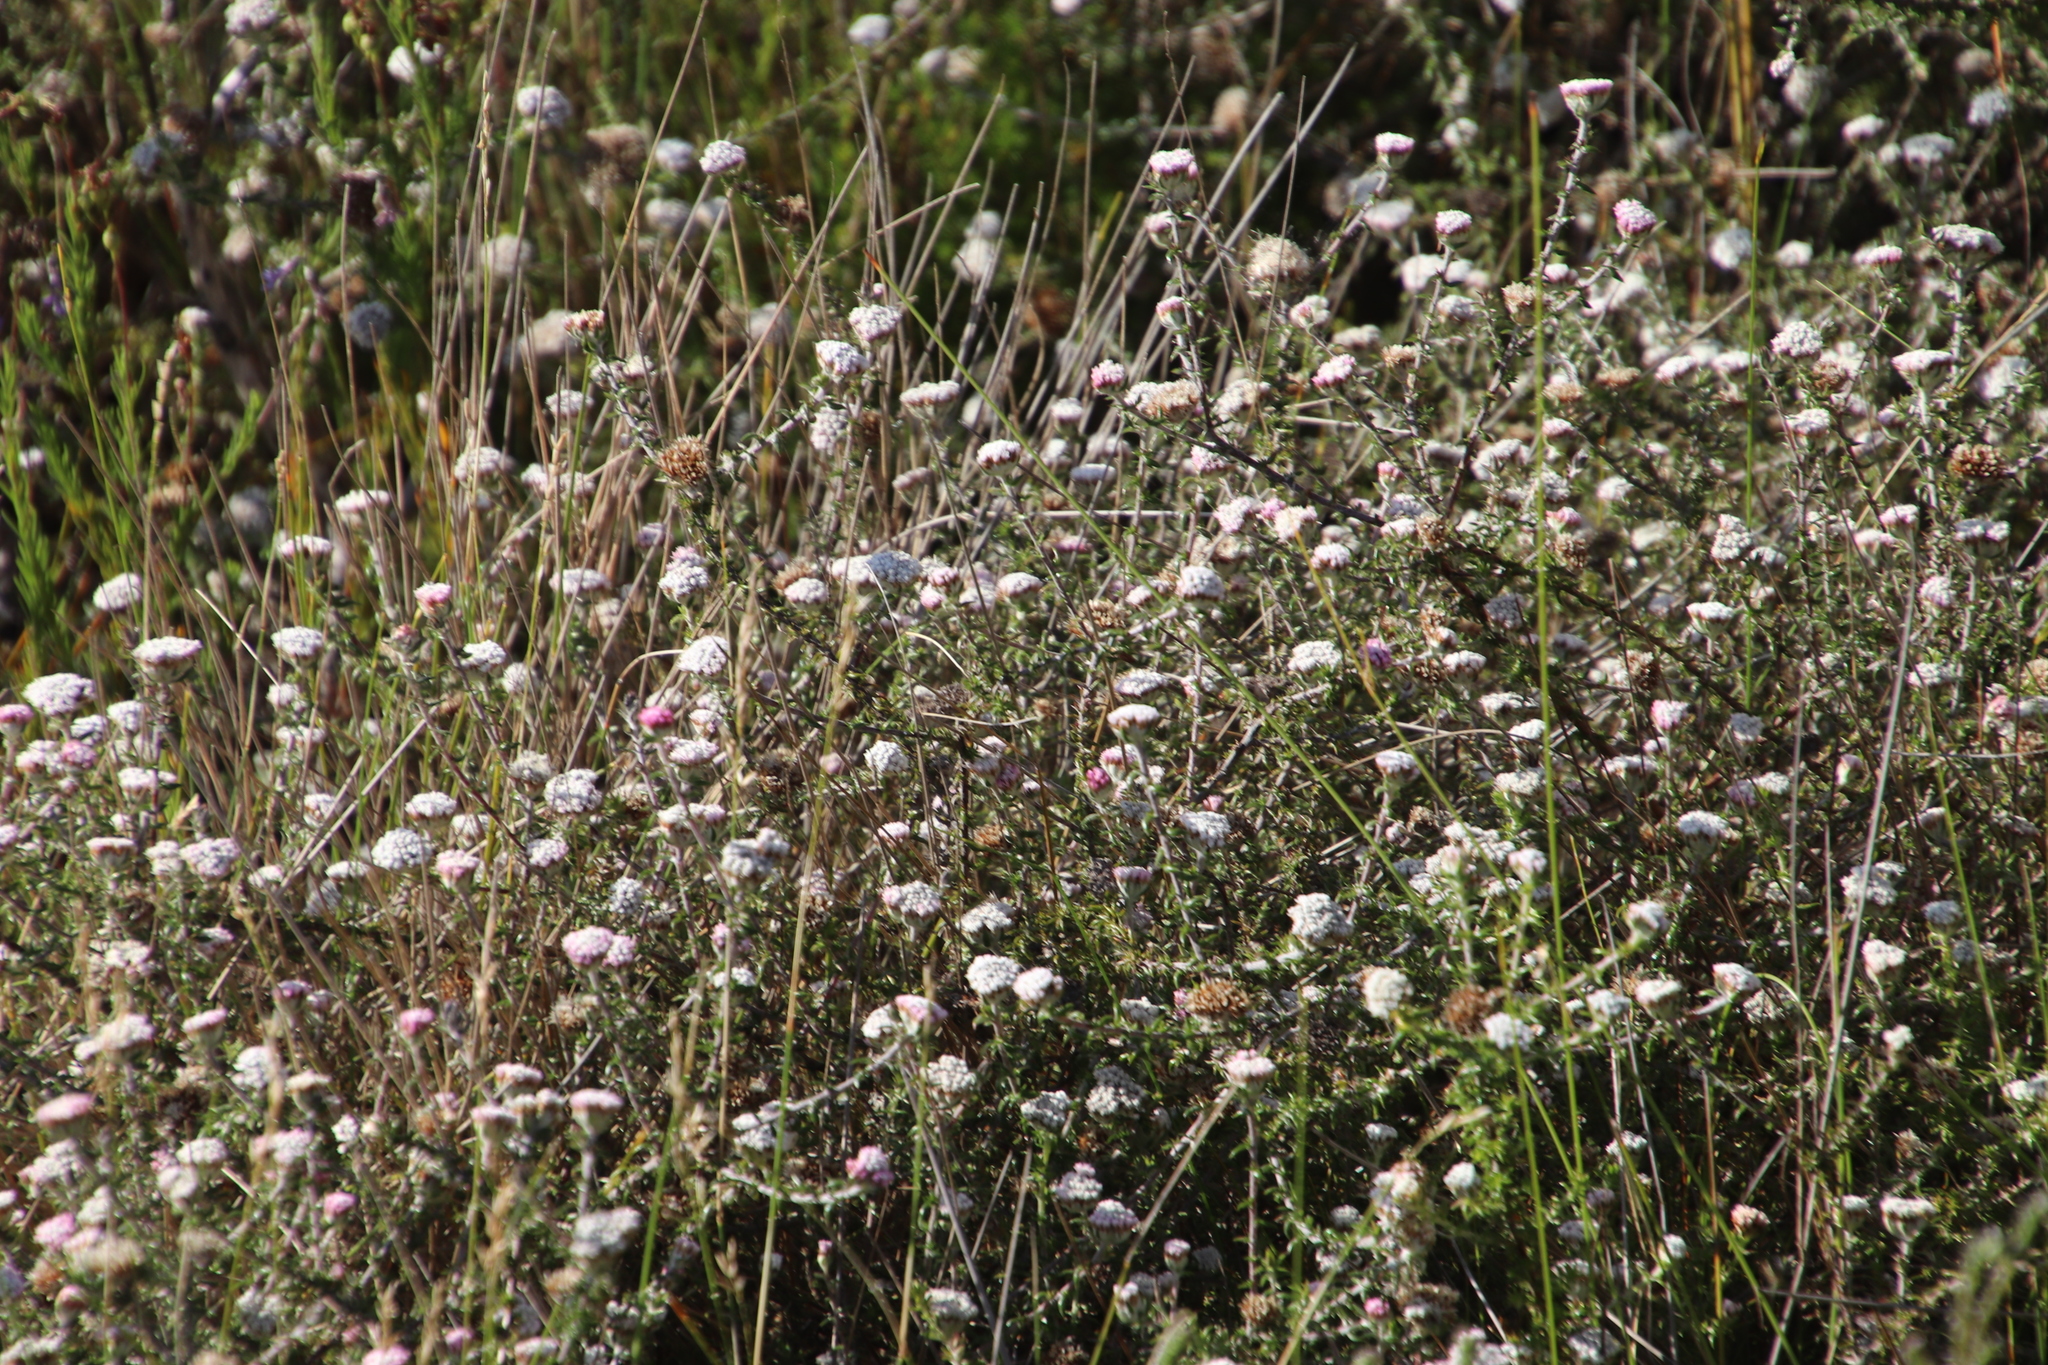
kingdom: Plantae
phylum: Tracheophyta
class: Magnoliopsida
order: Asterales
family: Asteraceae
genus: Metalasia
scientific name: Metalasia divergens
